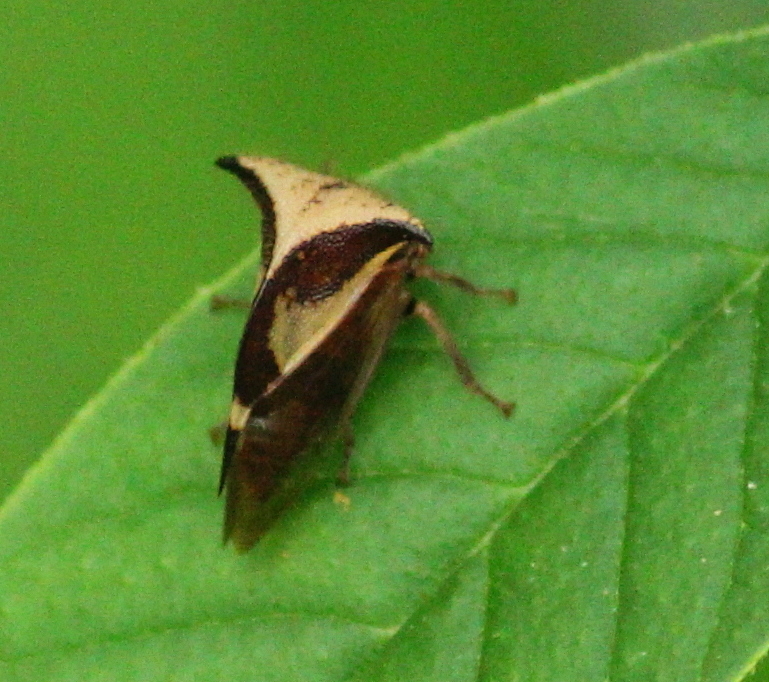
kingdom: Animalia
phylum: Arthropoda
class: Insecta
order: Hemiptera
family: Membracidae
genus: Stictocephala
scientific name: Stictocephala diceros
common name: Two-horned treehopper
